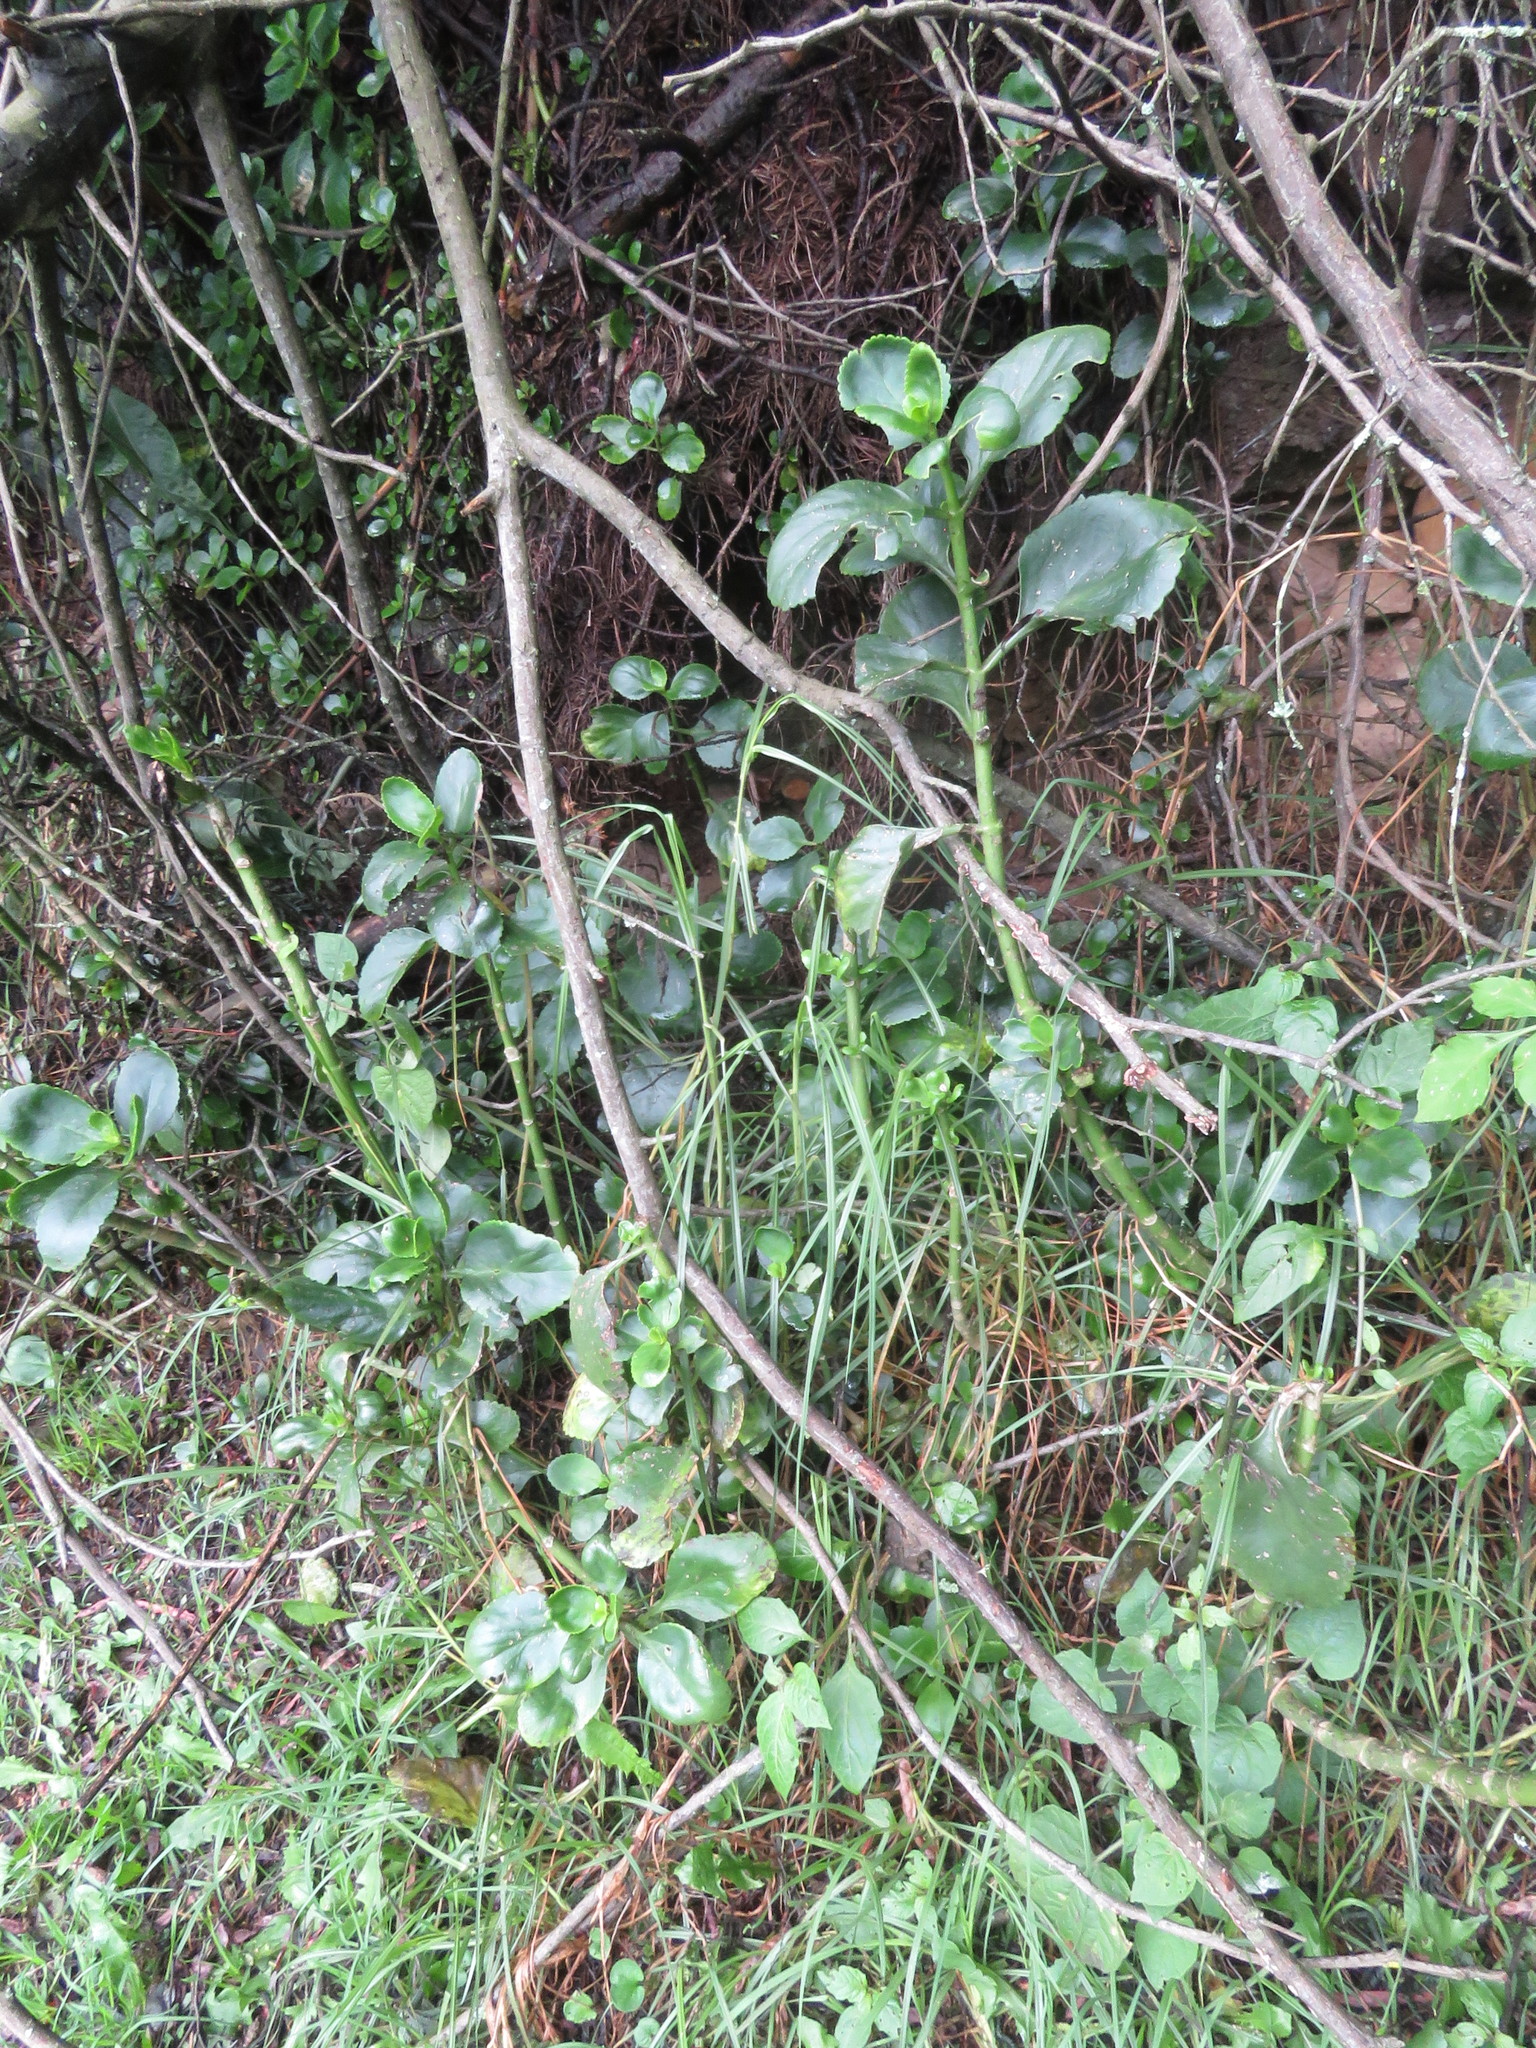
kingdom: Plantae
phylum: Tracheophyta
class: Magnoliopsida
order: Saxifragales
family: Crassulaceae
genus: Kalanchoe
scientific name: Kalanchoe densiflora
